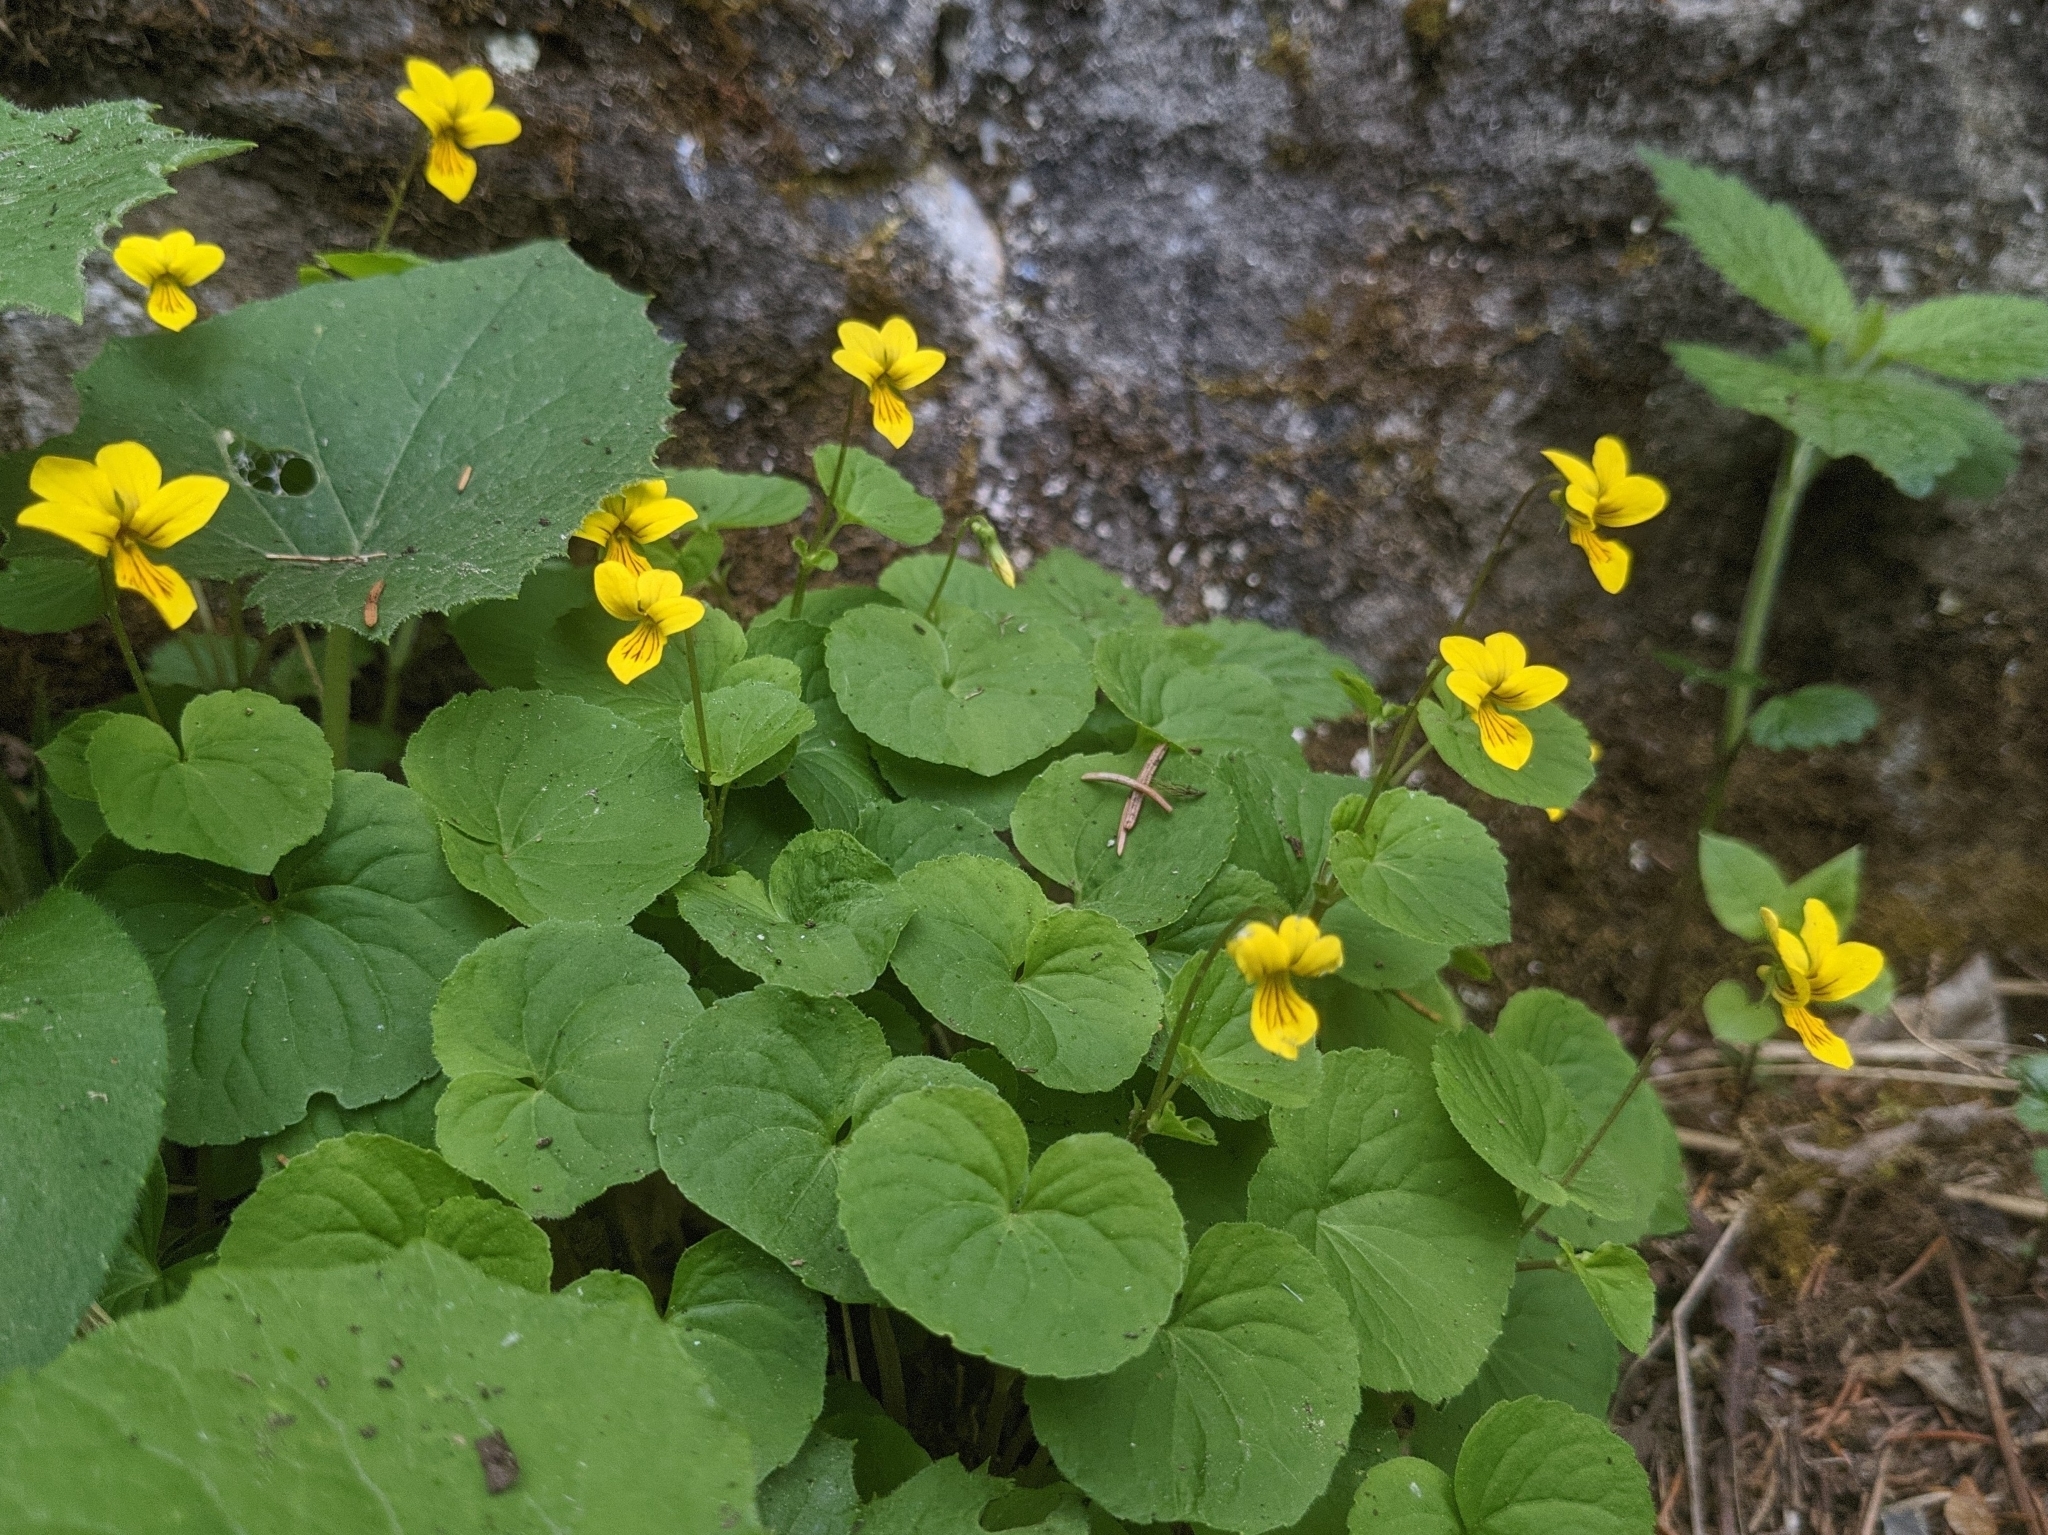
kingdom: Plantae
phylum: Tracheophyta
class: Magnoliopsida
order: Malpighiales
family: Violaceae
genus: Viola
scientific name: Viola biflora
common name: Alpine yellow violet
